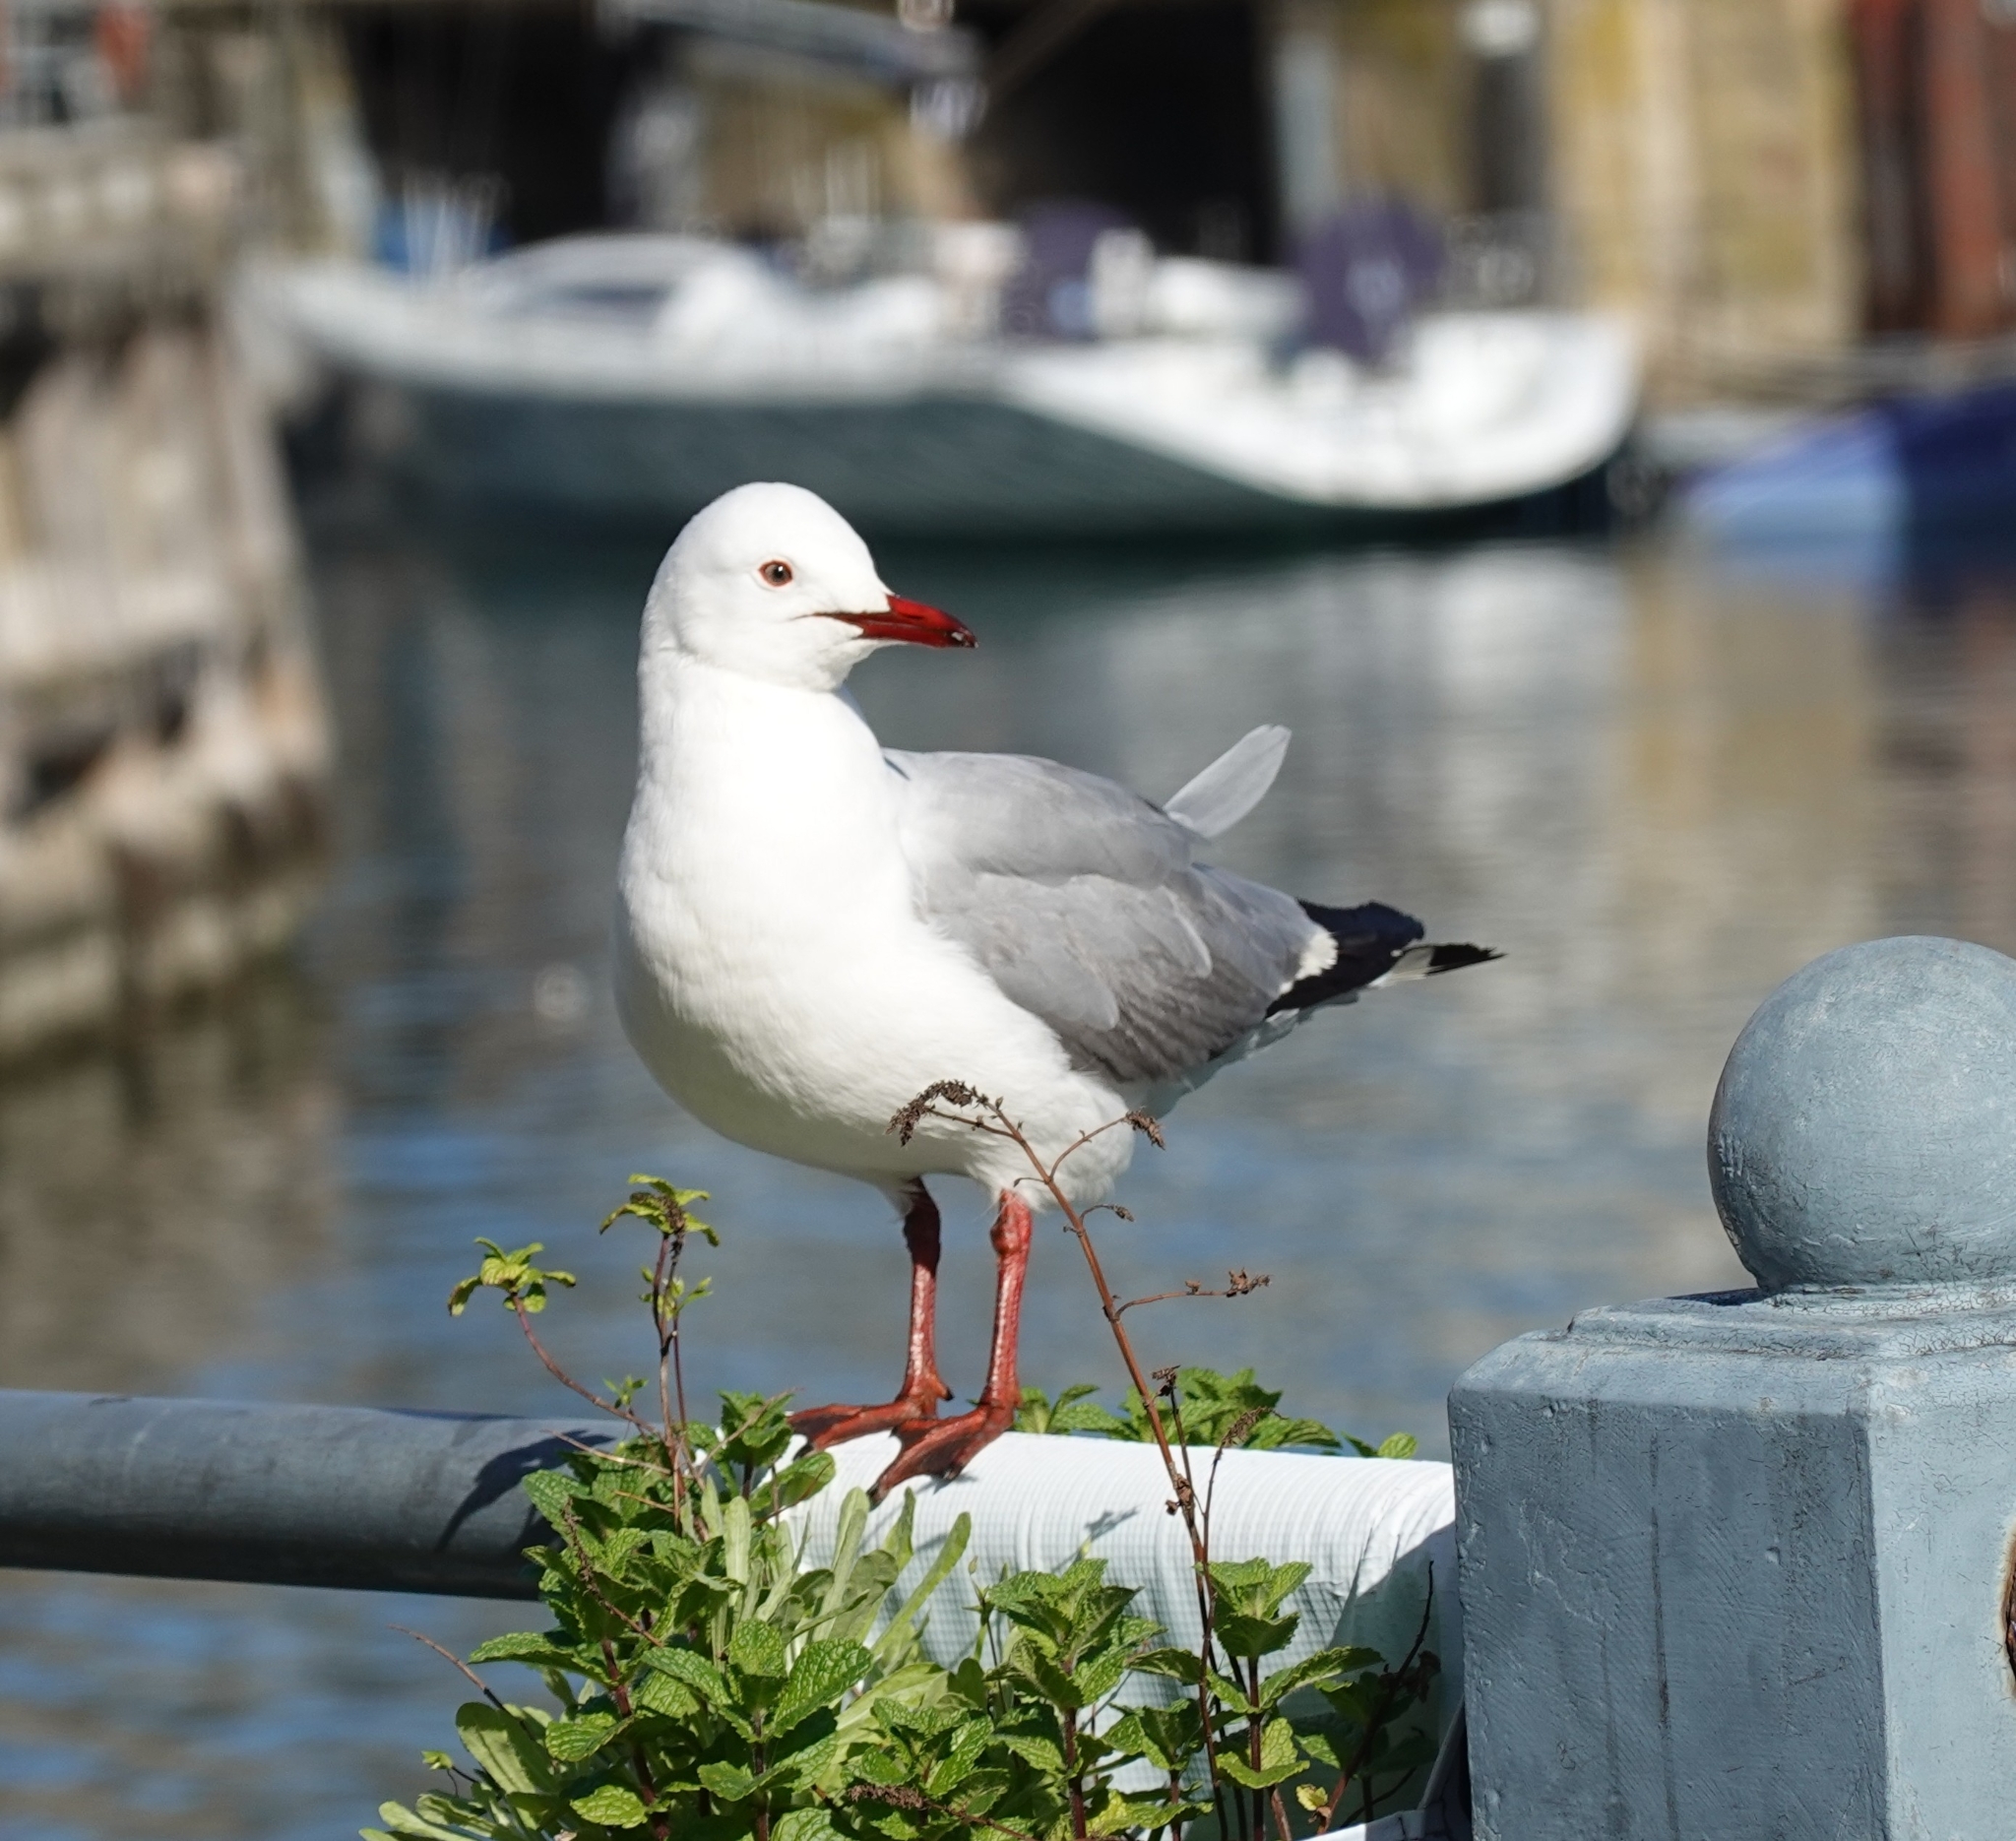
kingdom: Animalia
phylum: Chordata
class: Aves
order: Charadriiformes
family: Laridae
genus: Chroicocephalus
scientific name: Chroicocephalus cirrocephalus
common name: Grey-headed gull
